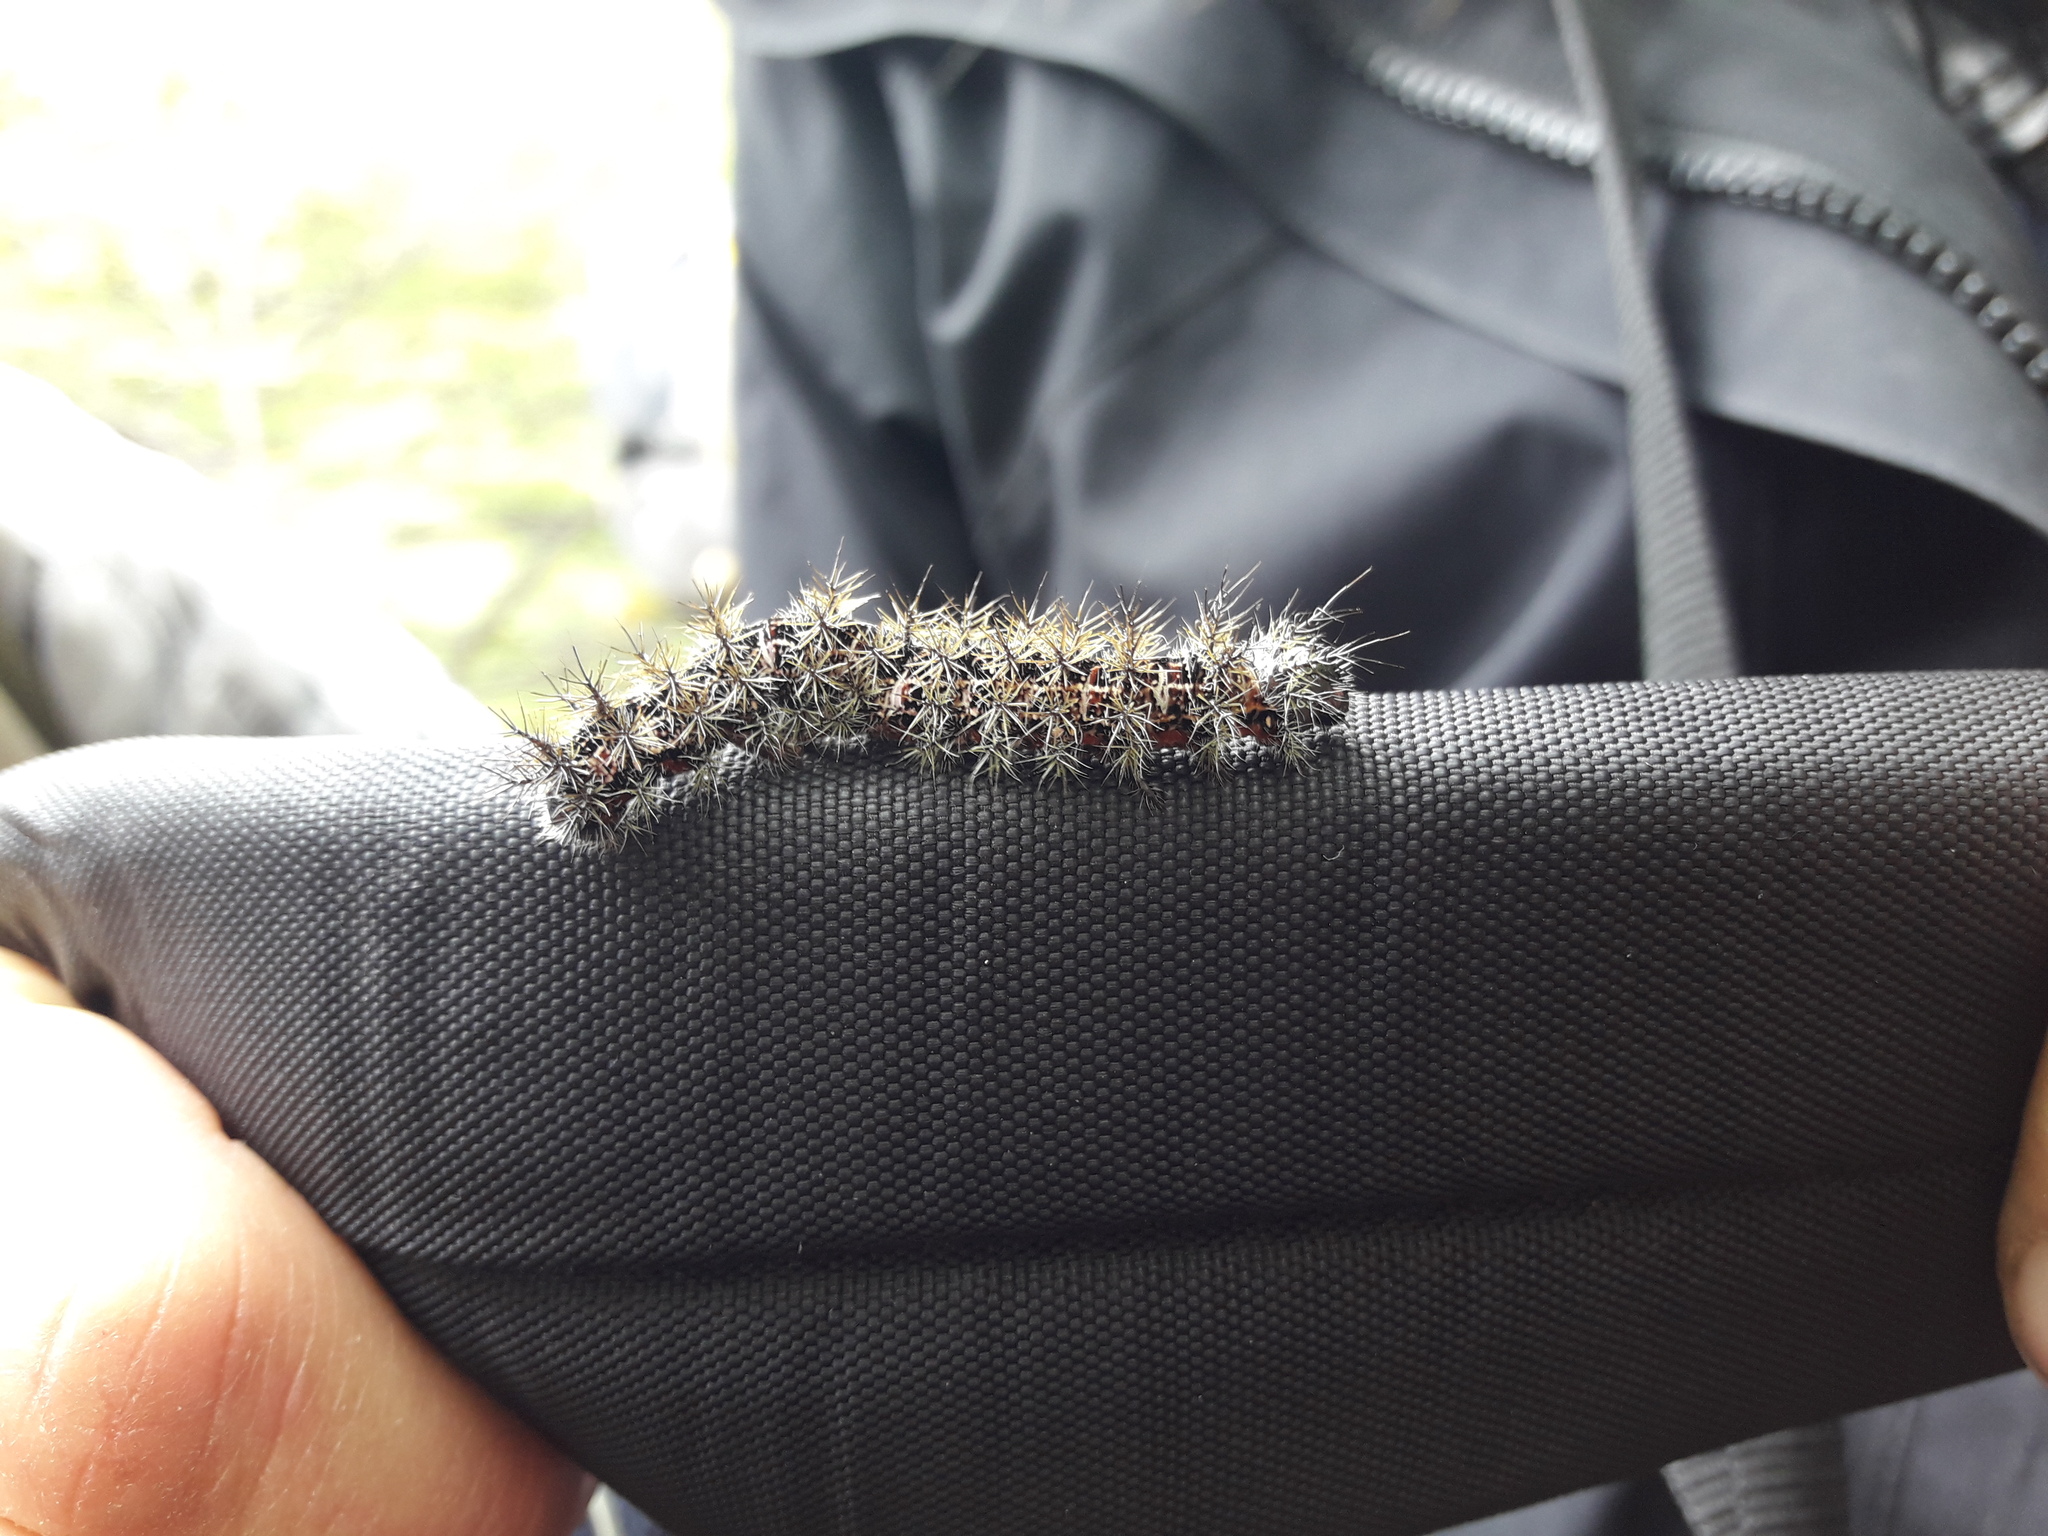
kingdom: Animalia
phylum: Arthropoda
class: Insecta
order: Lepidoptera
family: Saturniidae
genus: Ormiscodes
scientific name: Ormiscodes amphinome
